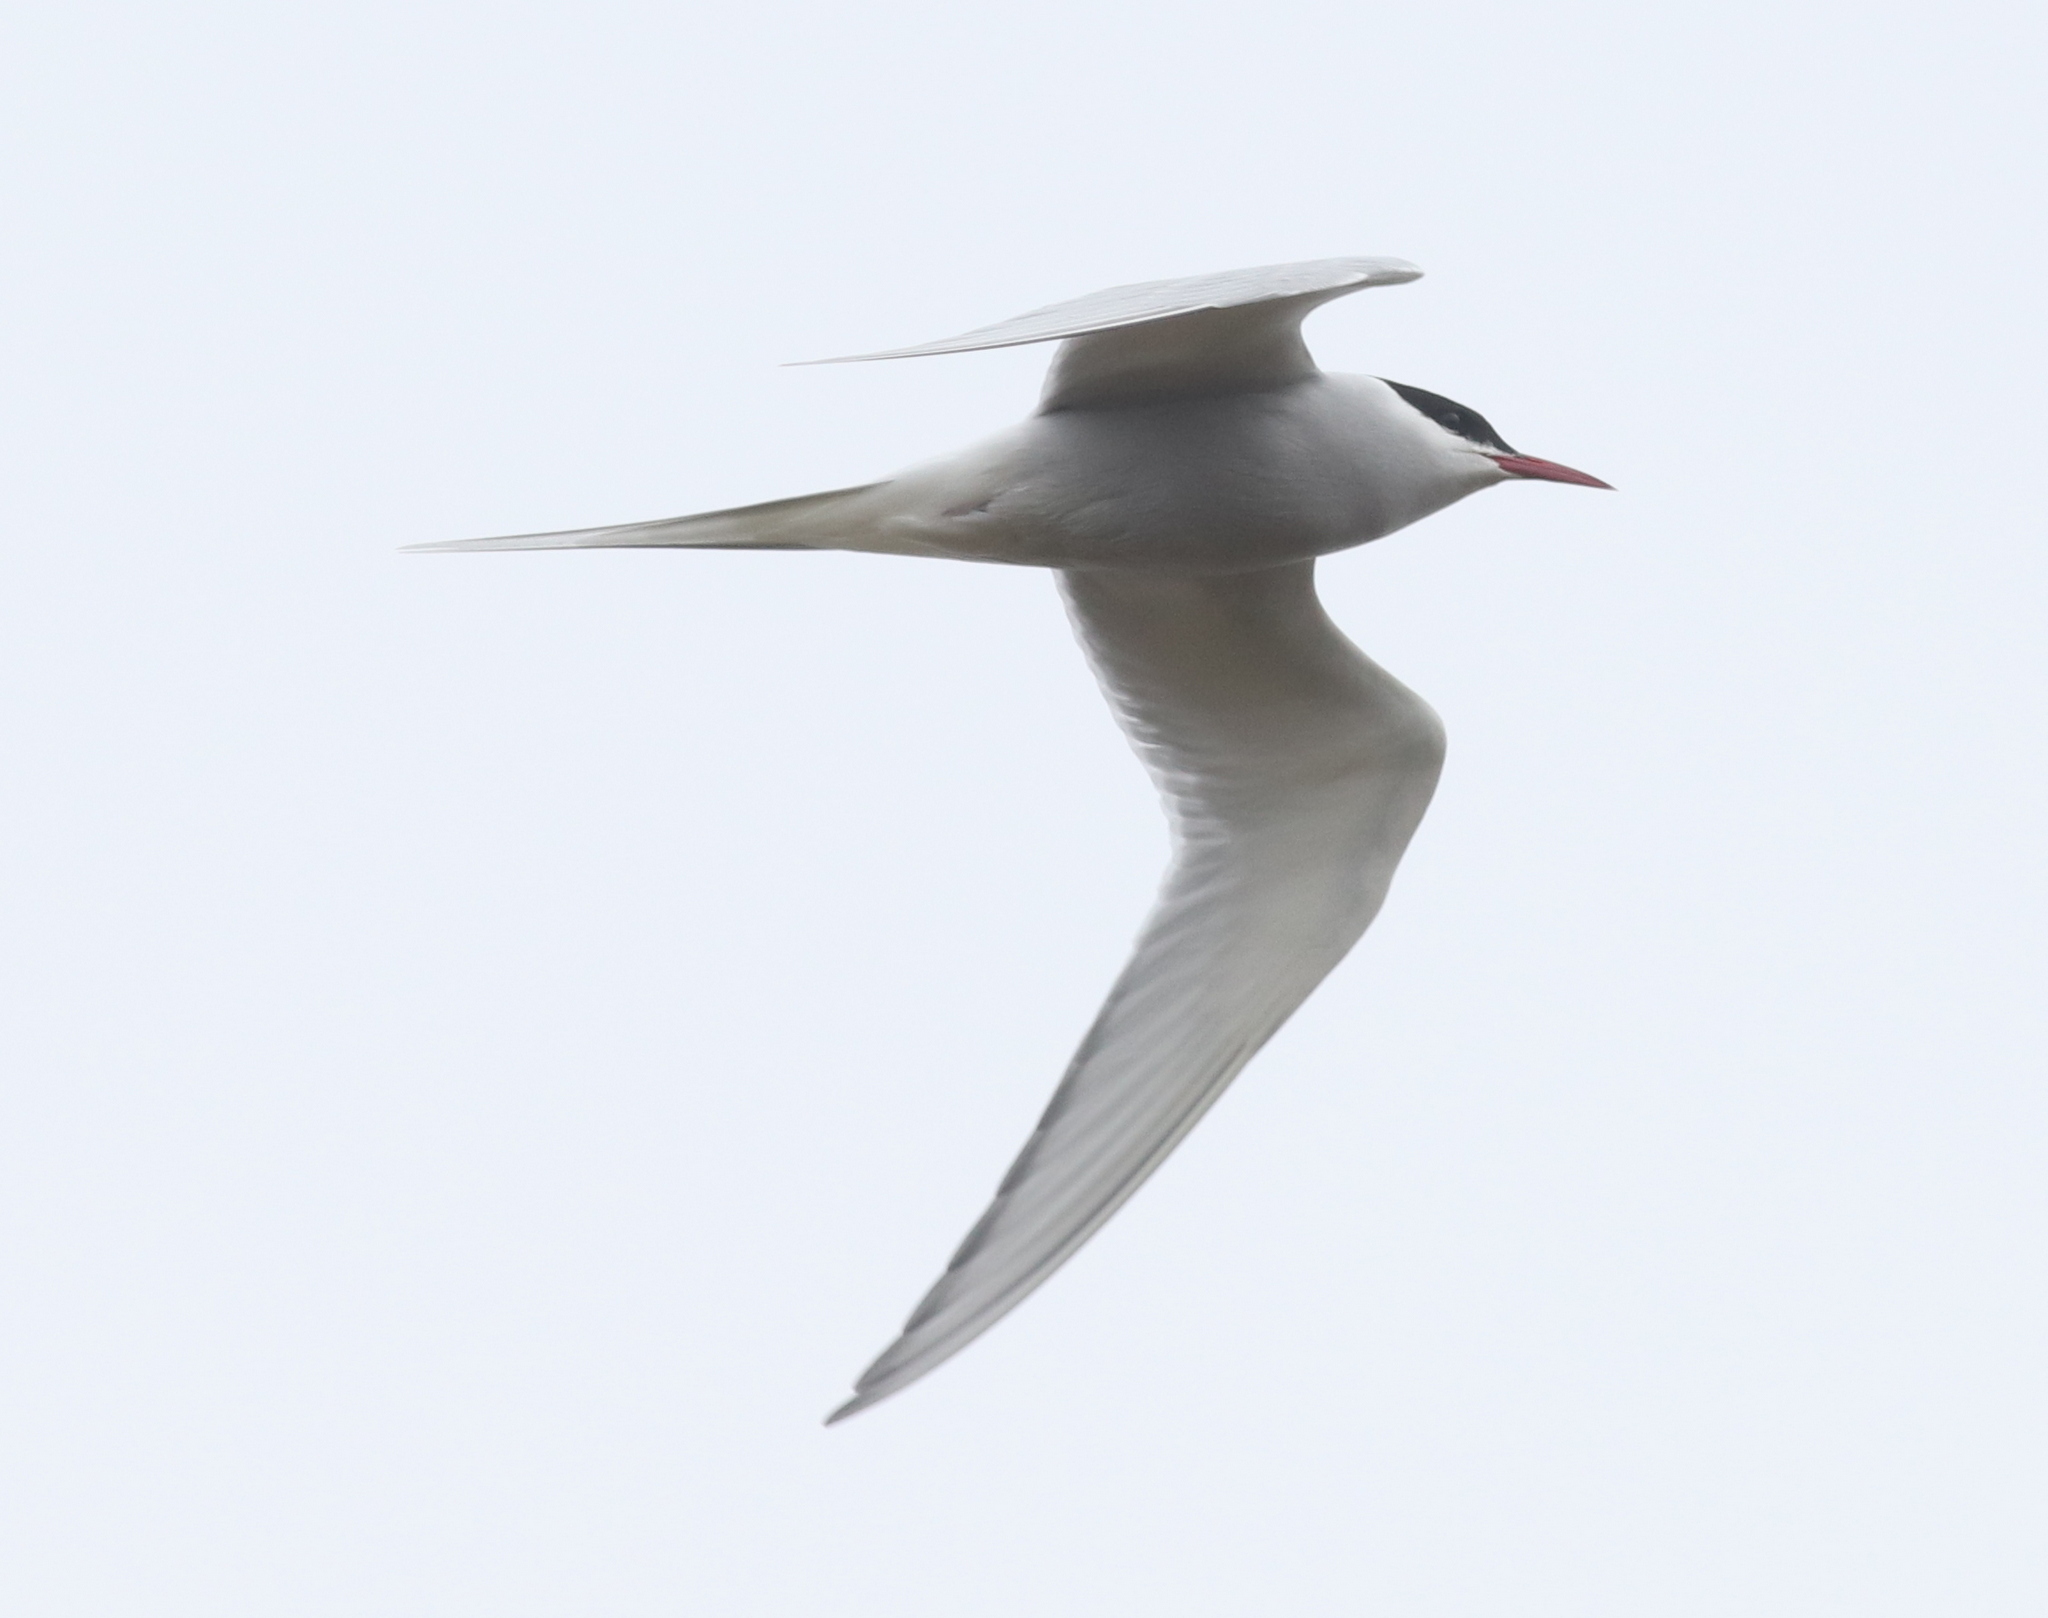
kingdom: Animalia
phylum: Chordata
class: Aves
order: Charadriiformes
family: Laridae
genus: Sterna
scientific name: Sterna paradisaea
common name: Arctic tern
